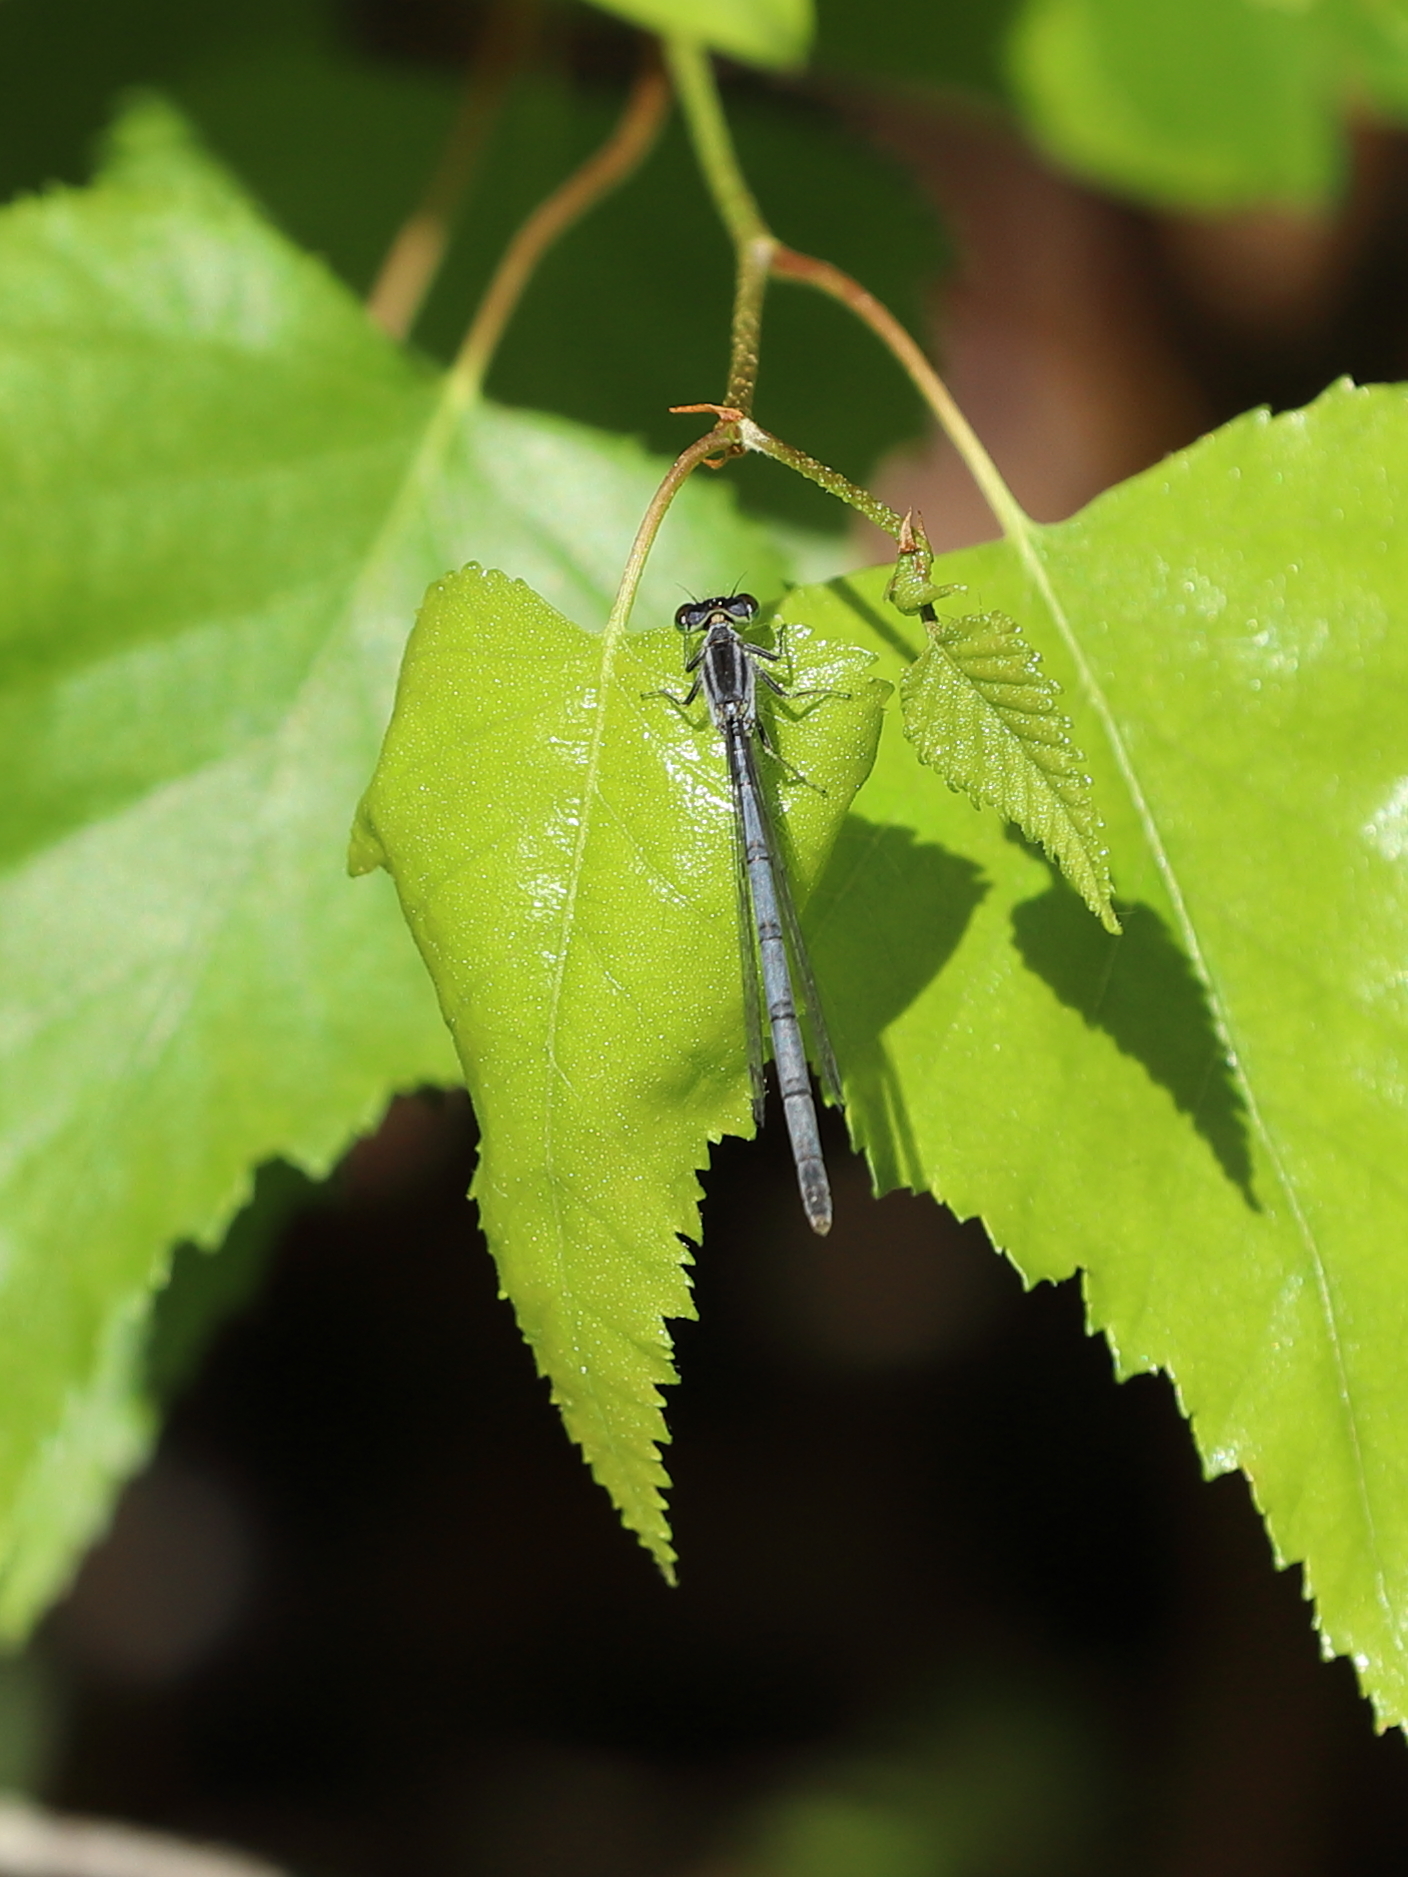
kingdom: Animalia
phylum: Arthropoda
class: Insecta
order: Odonata
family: Coenagrionidae
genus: Ischnura
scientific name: Ischnura verticalis
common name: Eastern forktail
